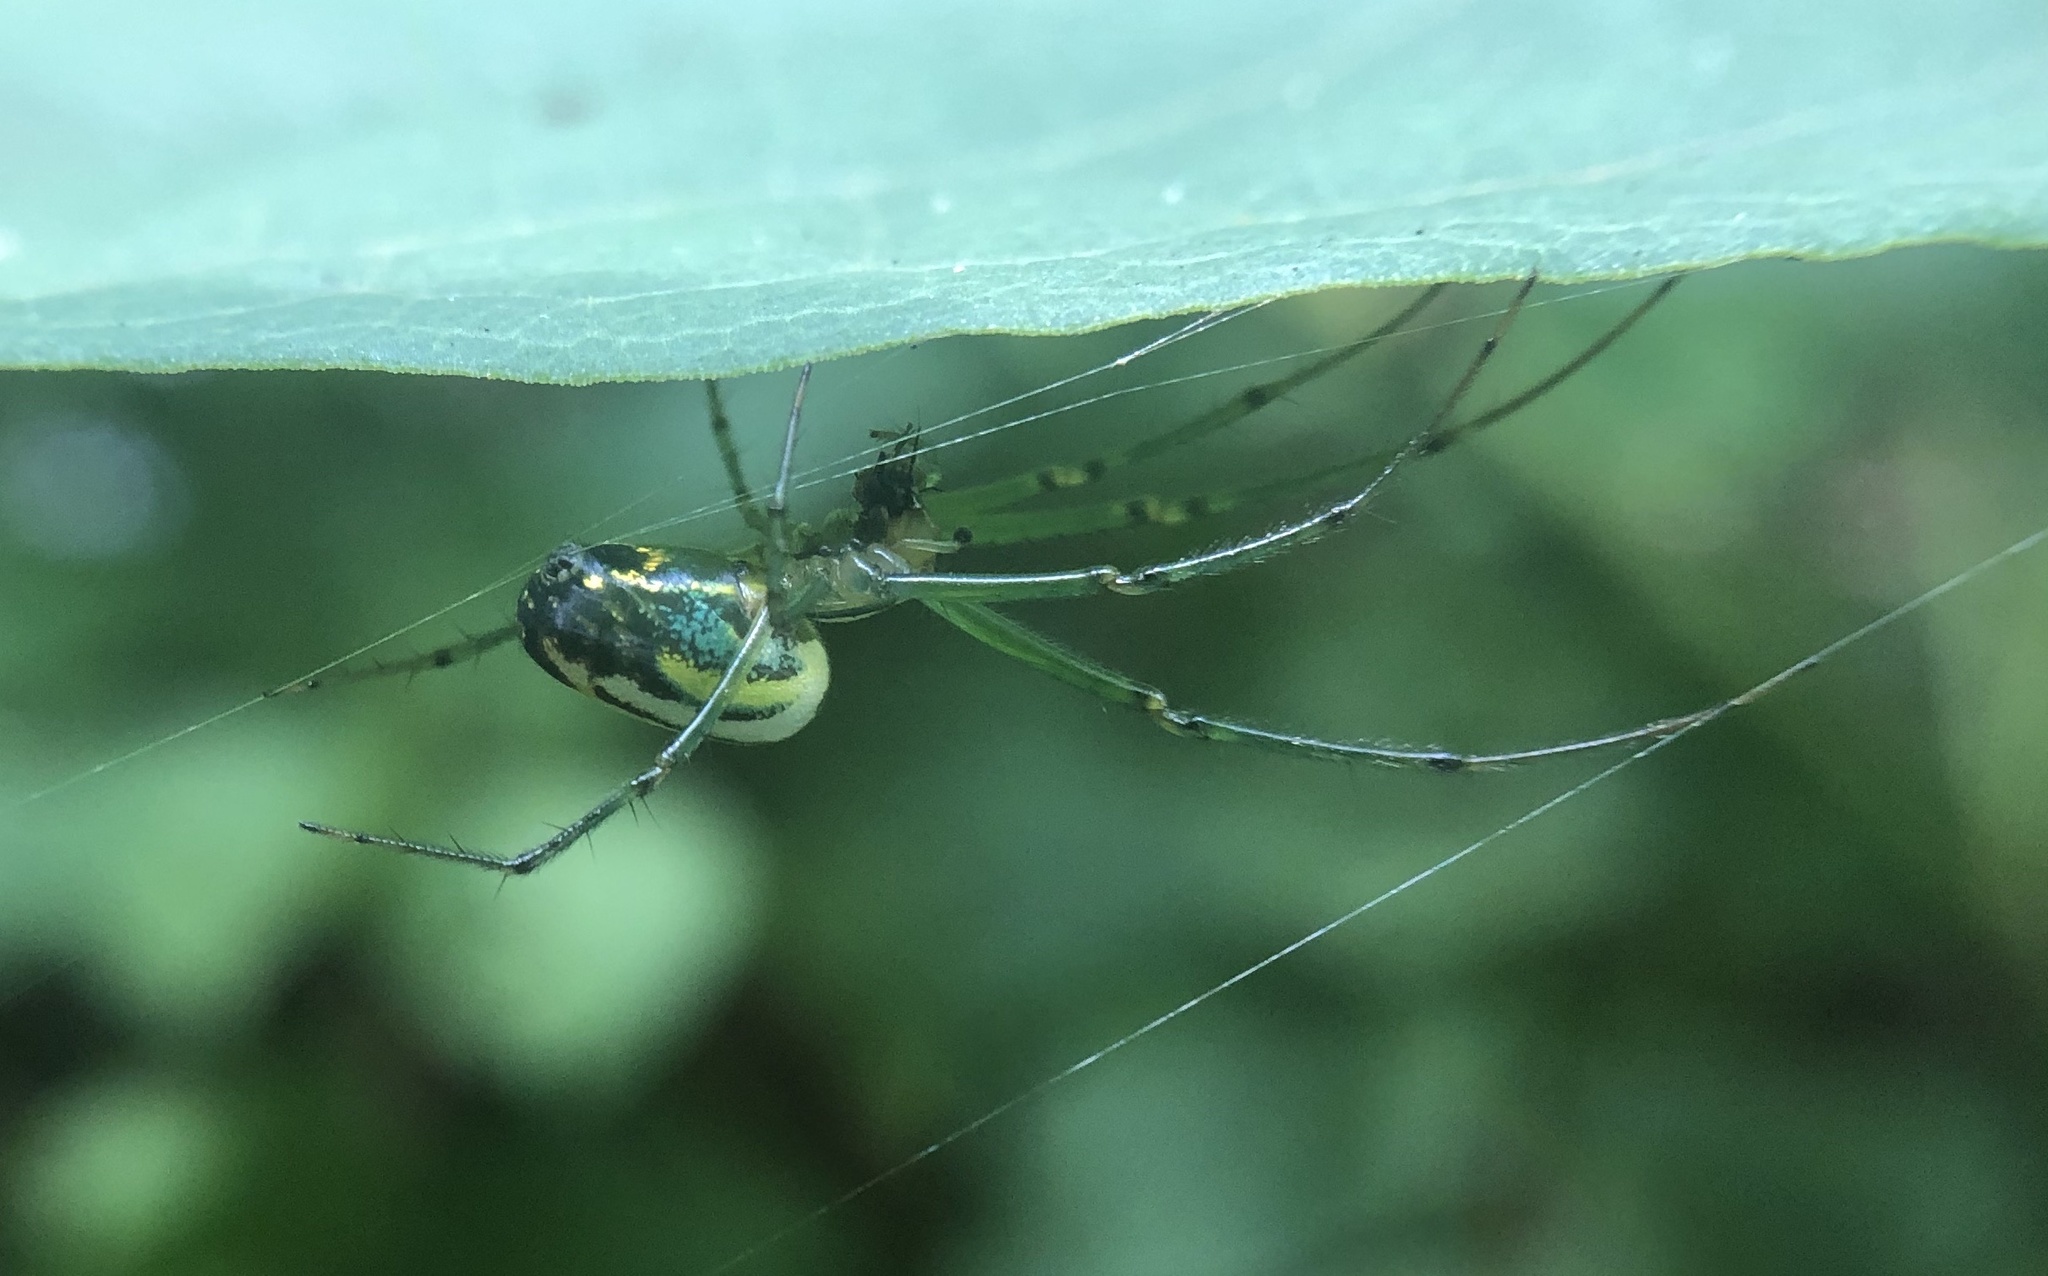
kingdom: Animalia
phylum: Arthropoda
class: Arachnida
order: Araneae
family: Tetragnathidae
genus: Leucauge
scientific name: Leucauge venusta
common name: Longjawed orb weavers
